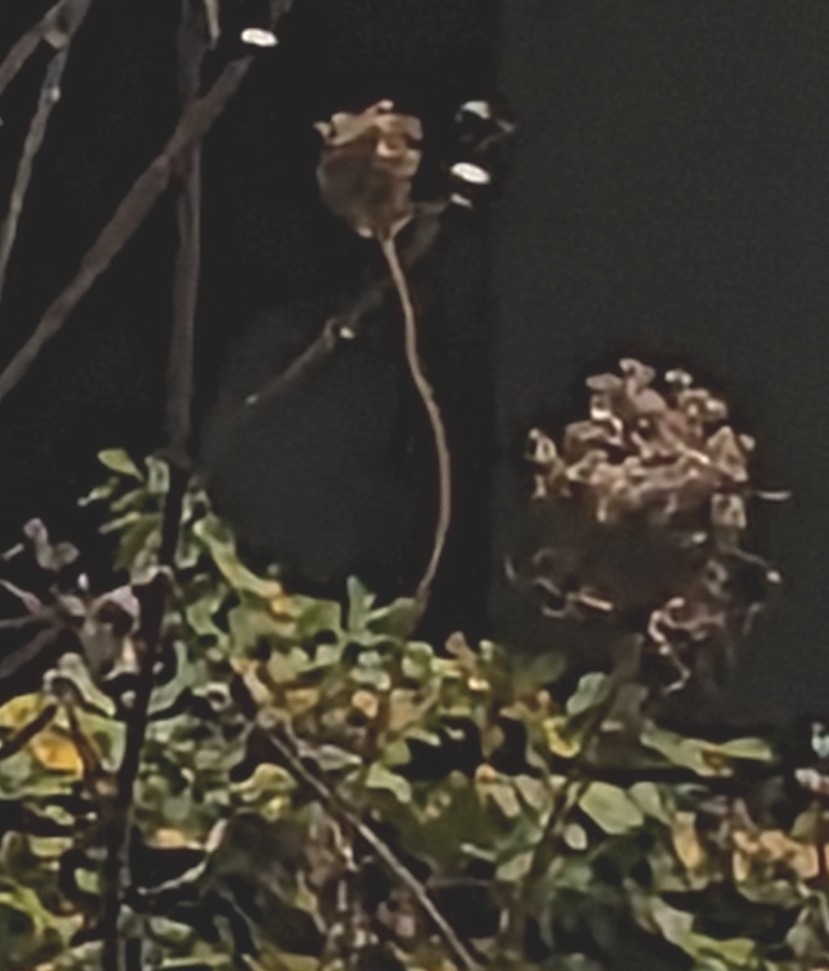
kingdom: Plantae
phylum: Tracheophyta
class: Magnoliopsida
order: Apiales
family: Apiaceae
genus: Daucus
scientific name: Daucus carota
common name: Wild carrot
